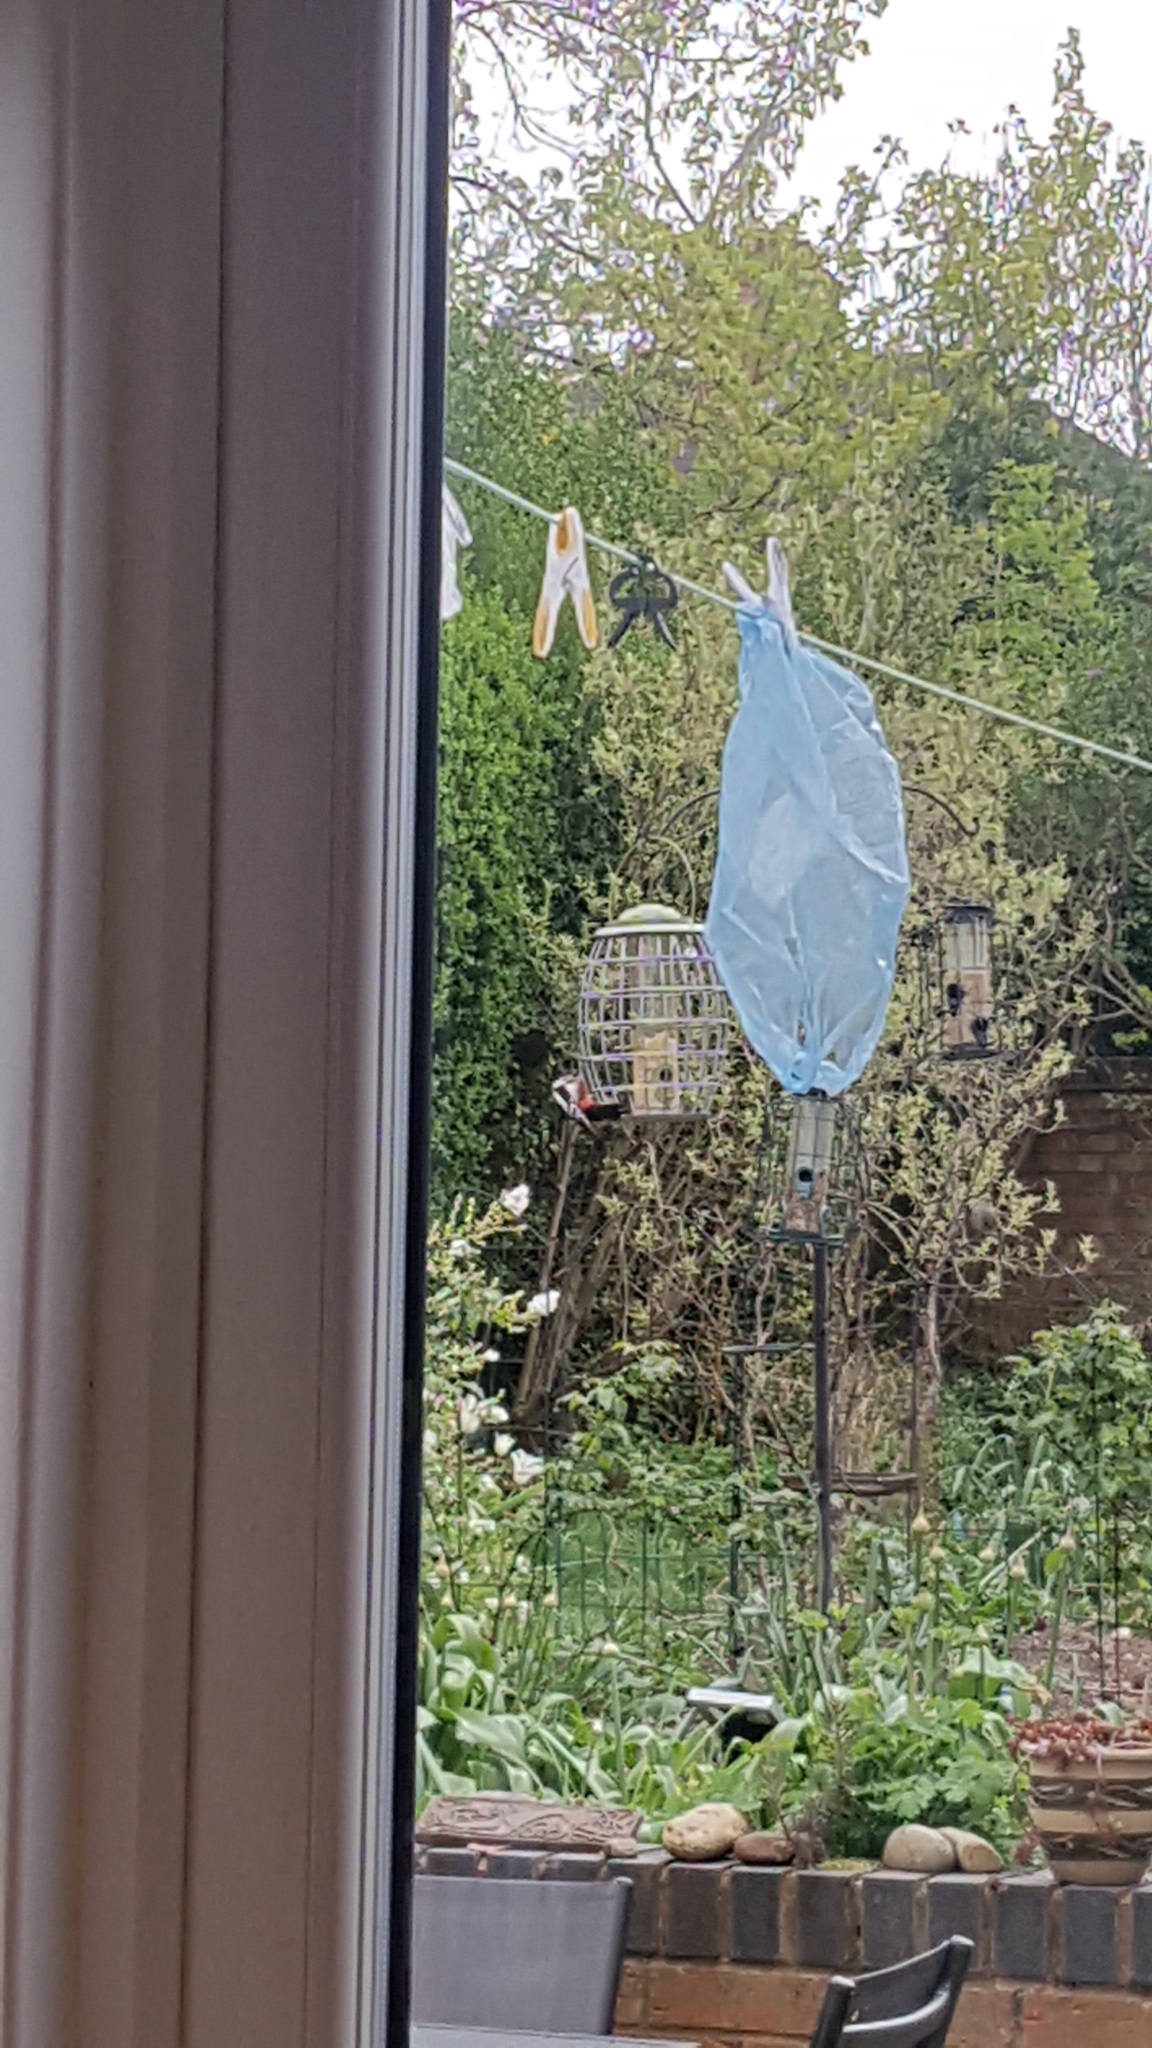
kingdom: Animalia
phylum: Chordata
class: Aves
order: Piciformes
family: Picidae
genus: Dendrocopos
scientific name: Dendrocopos major
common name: Great spotted woodpecker
